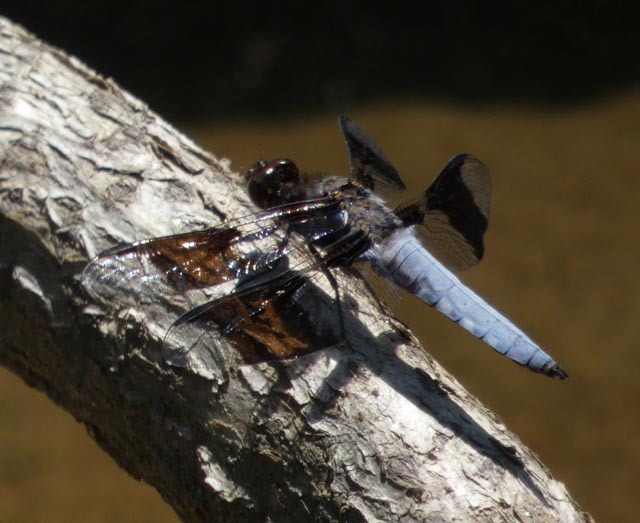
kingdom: Animalia
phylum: Arthropoda
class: Insecta
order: Odonata
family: Libellulidae
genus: Plathemis
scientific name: Plathemis lydia
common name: Common whitetail
